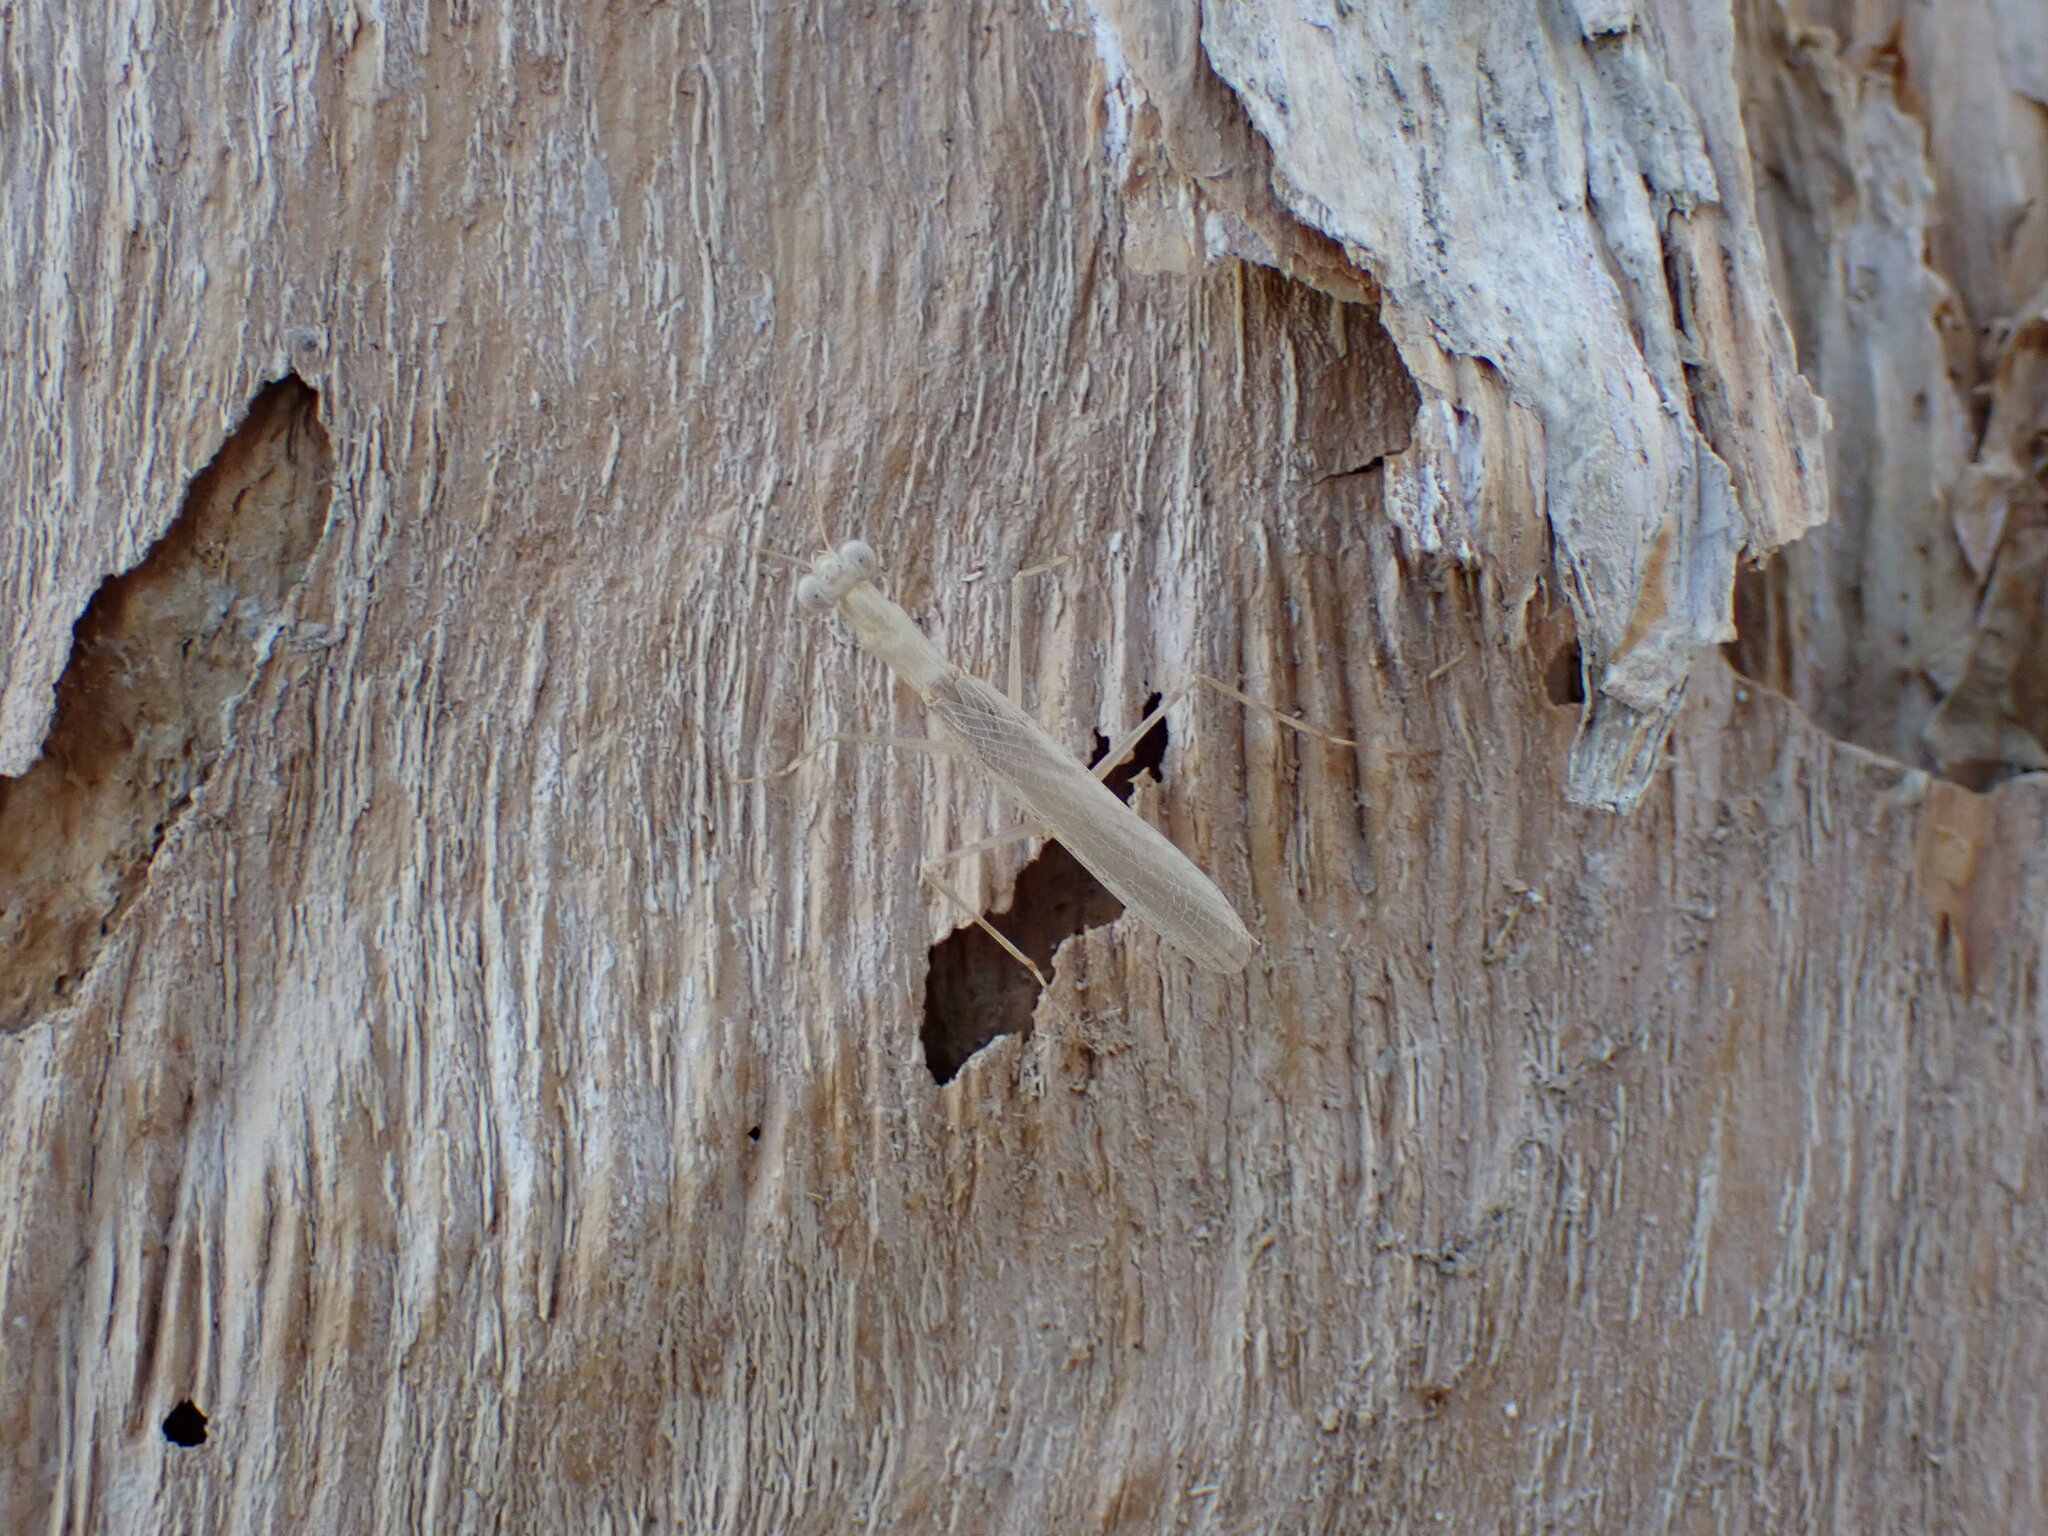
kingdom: Animalia
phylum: Arthropoda
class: Insecta
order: Mantodea
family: Nanomantidae
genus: Ima
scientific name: Ima fusca
